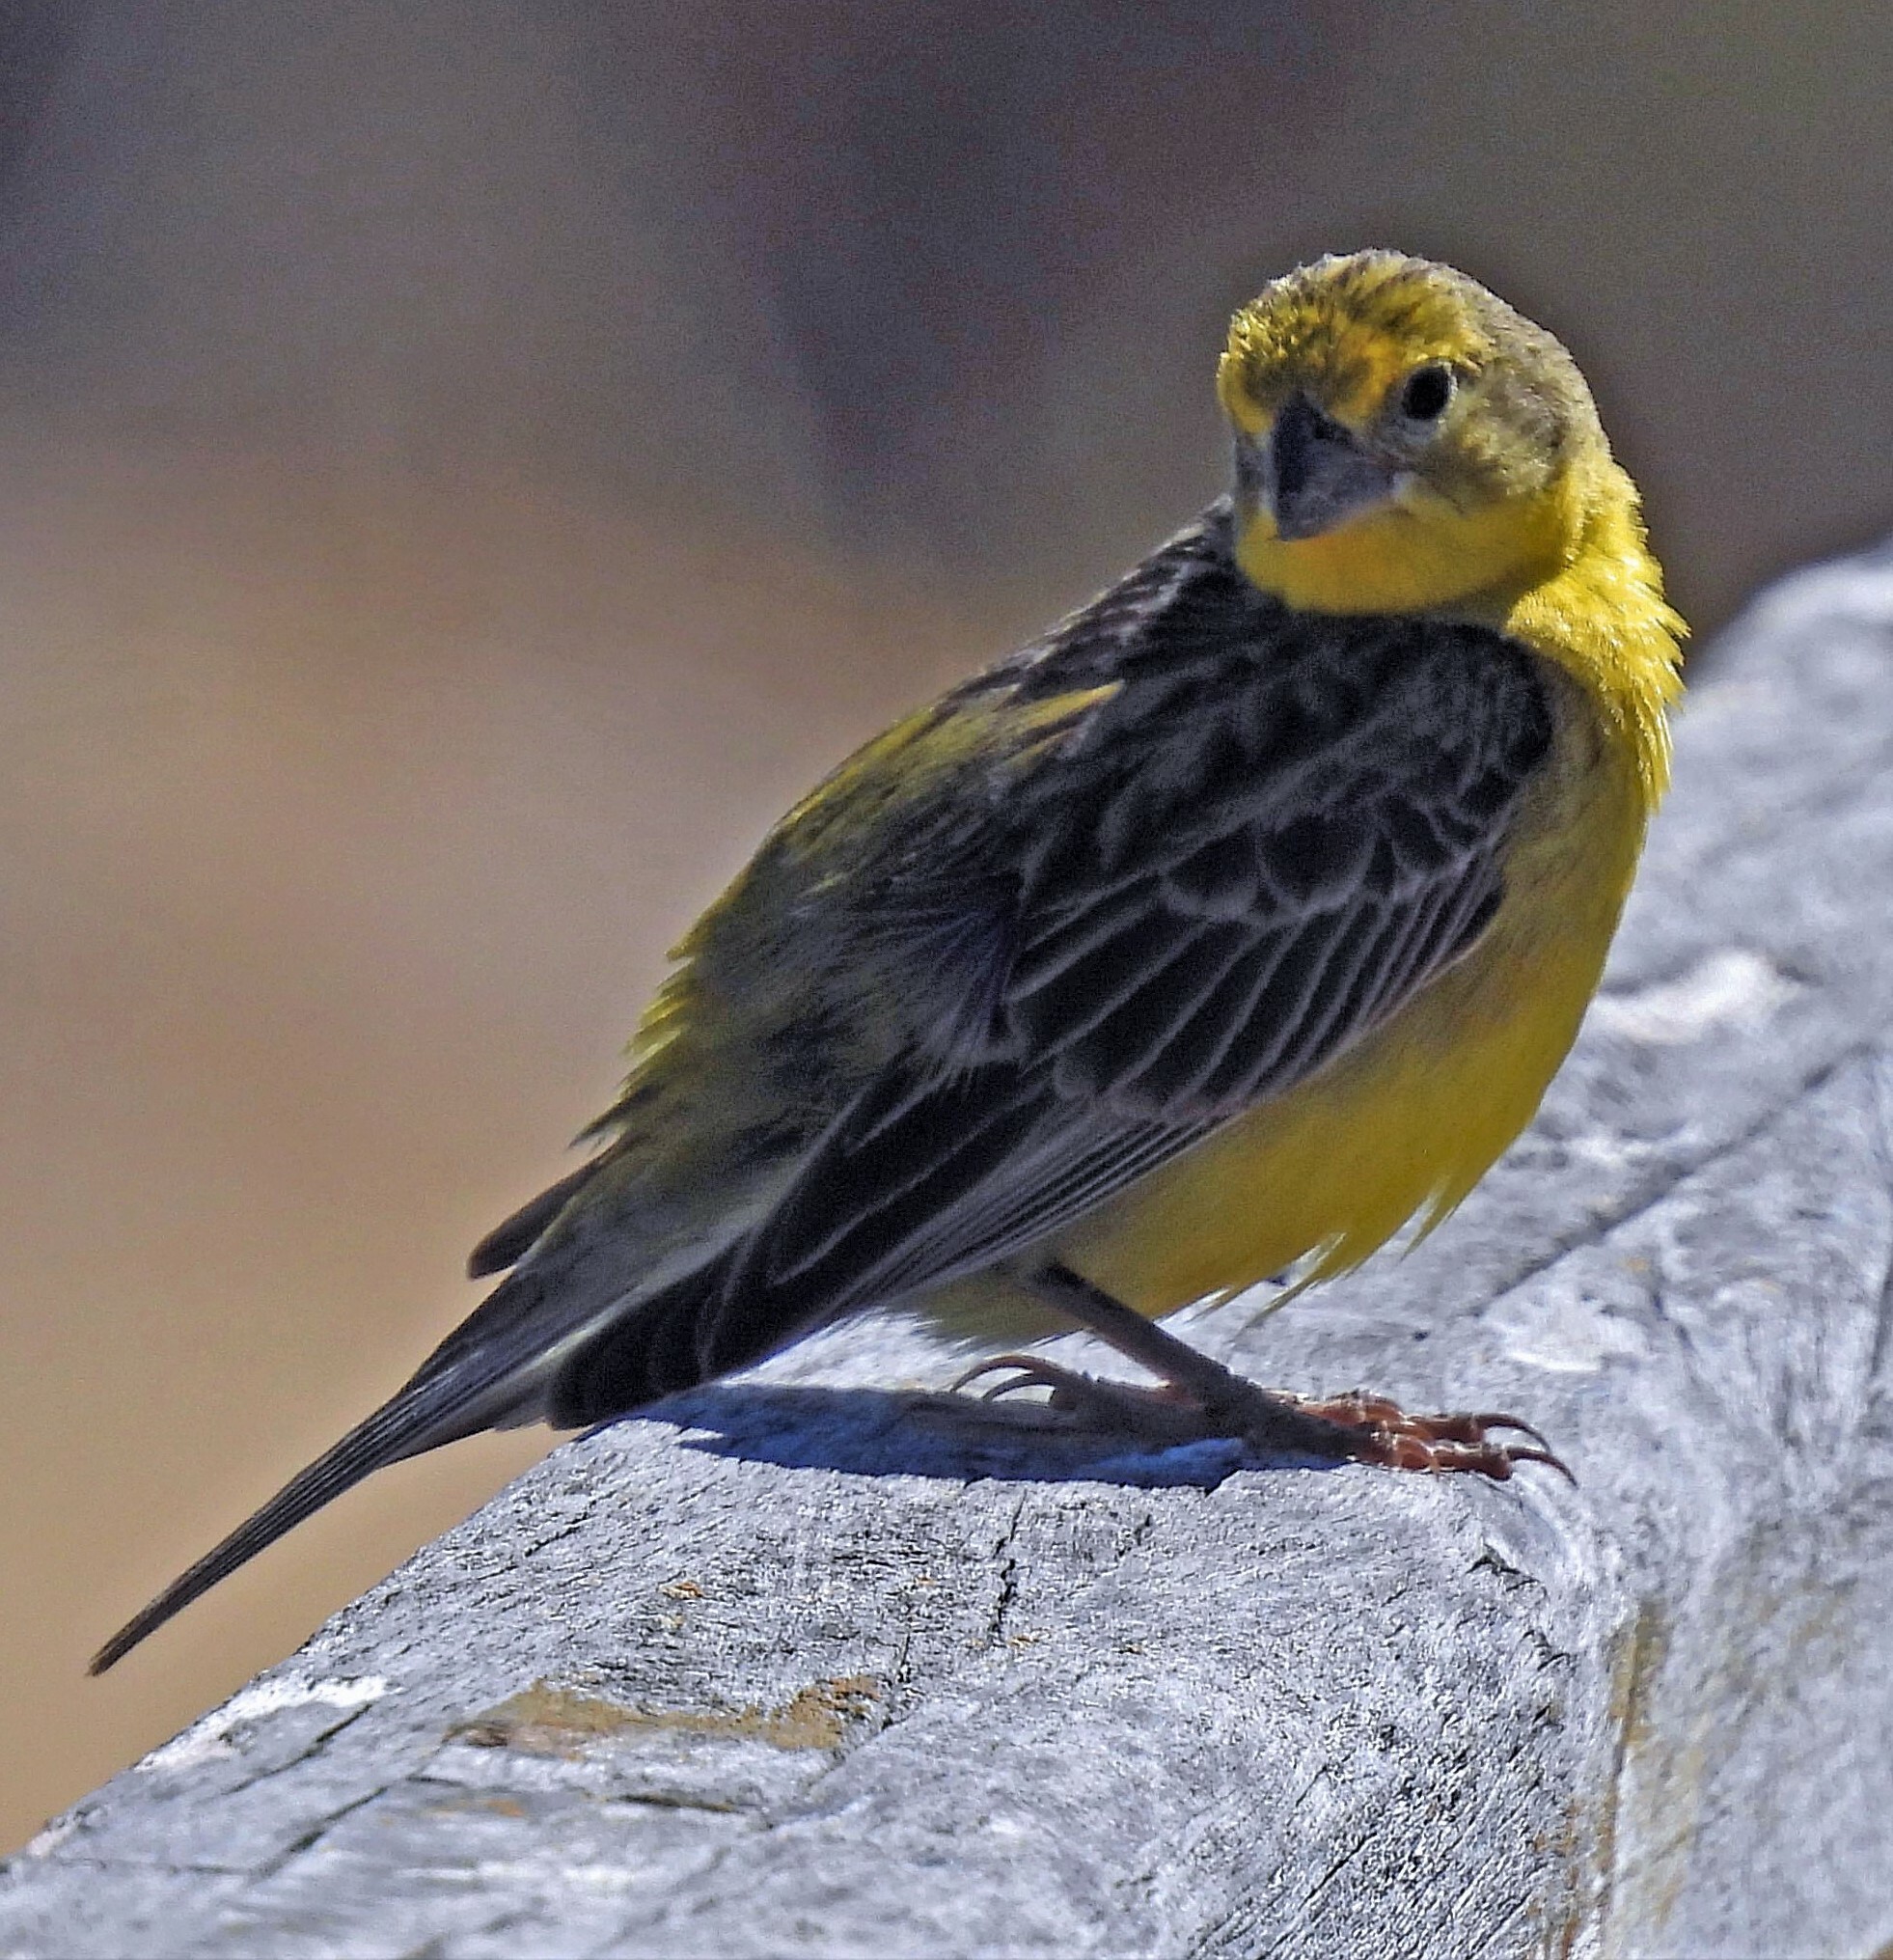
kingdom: Animalia
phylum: Chordata
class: Aves
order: Passeriformes
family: Thraupidae
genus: Sicalis
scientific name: Sicalis luteola
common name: Grassland yellow-finch
